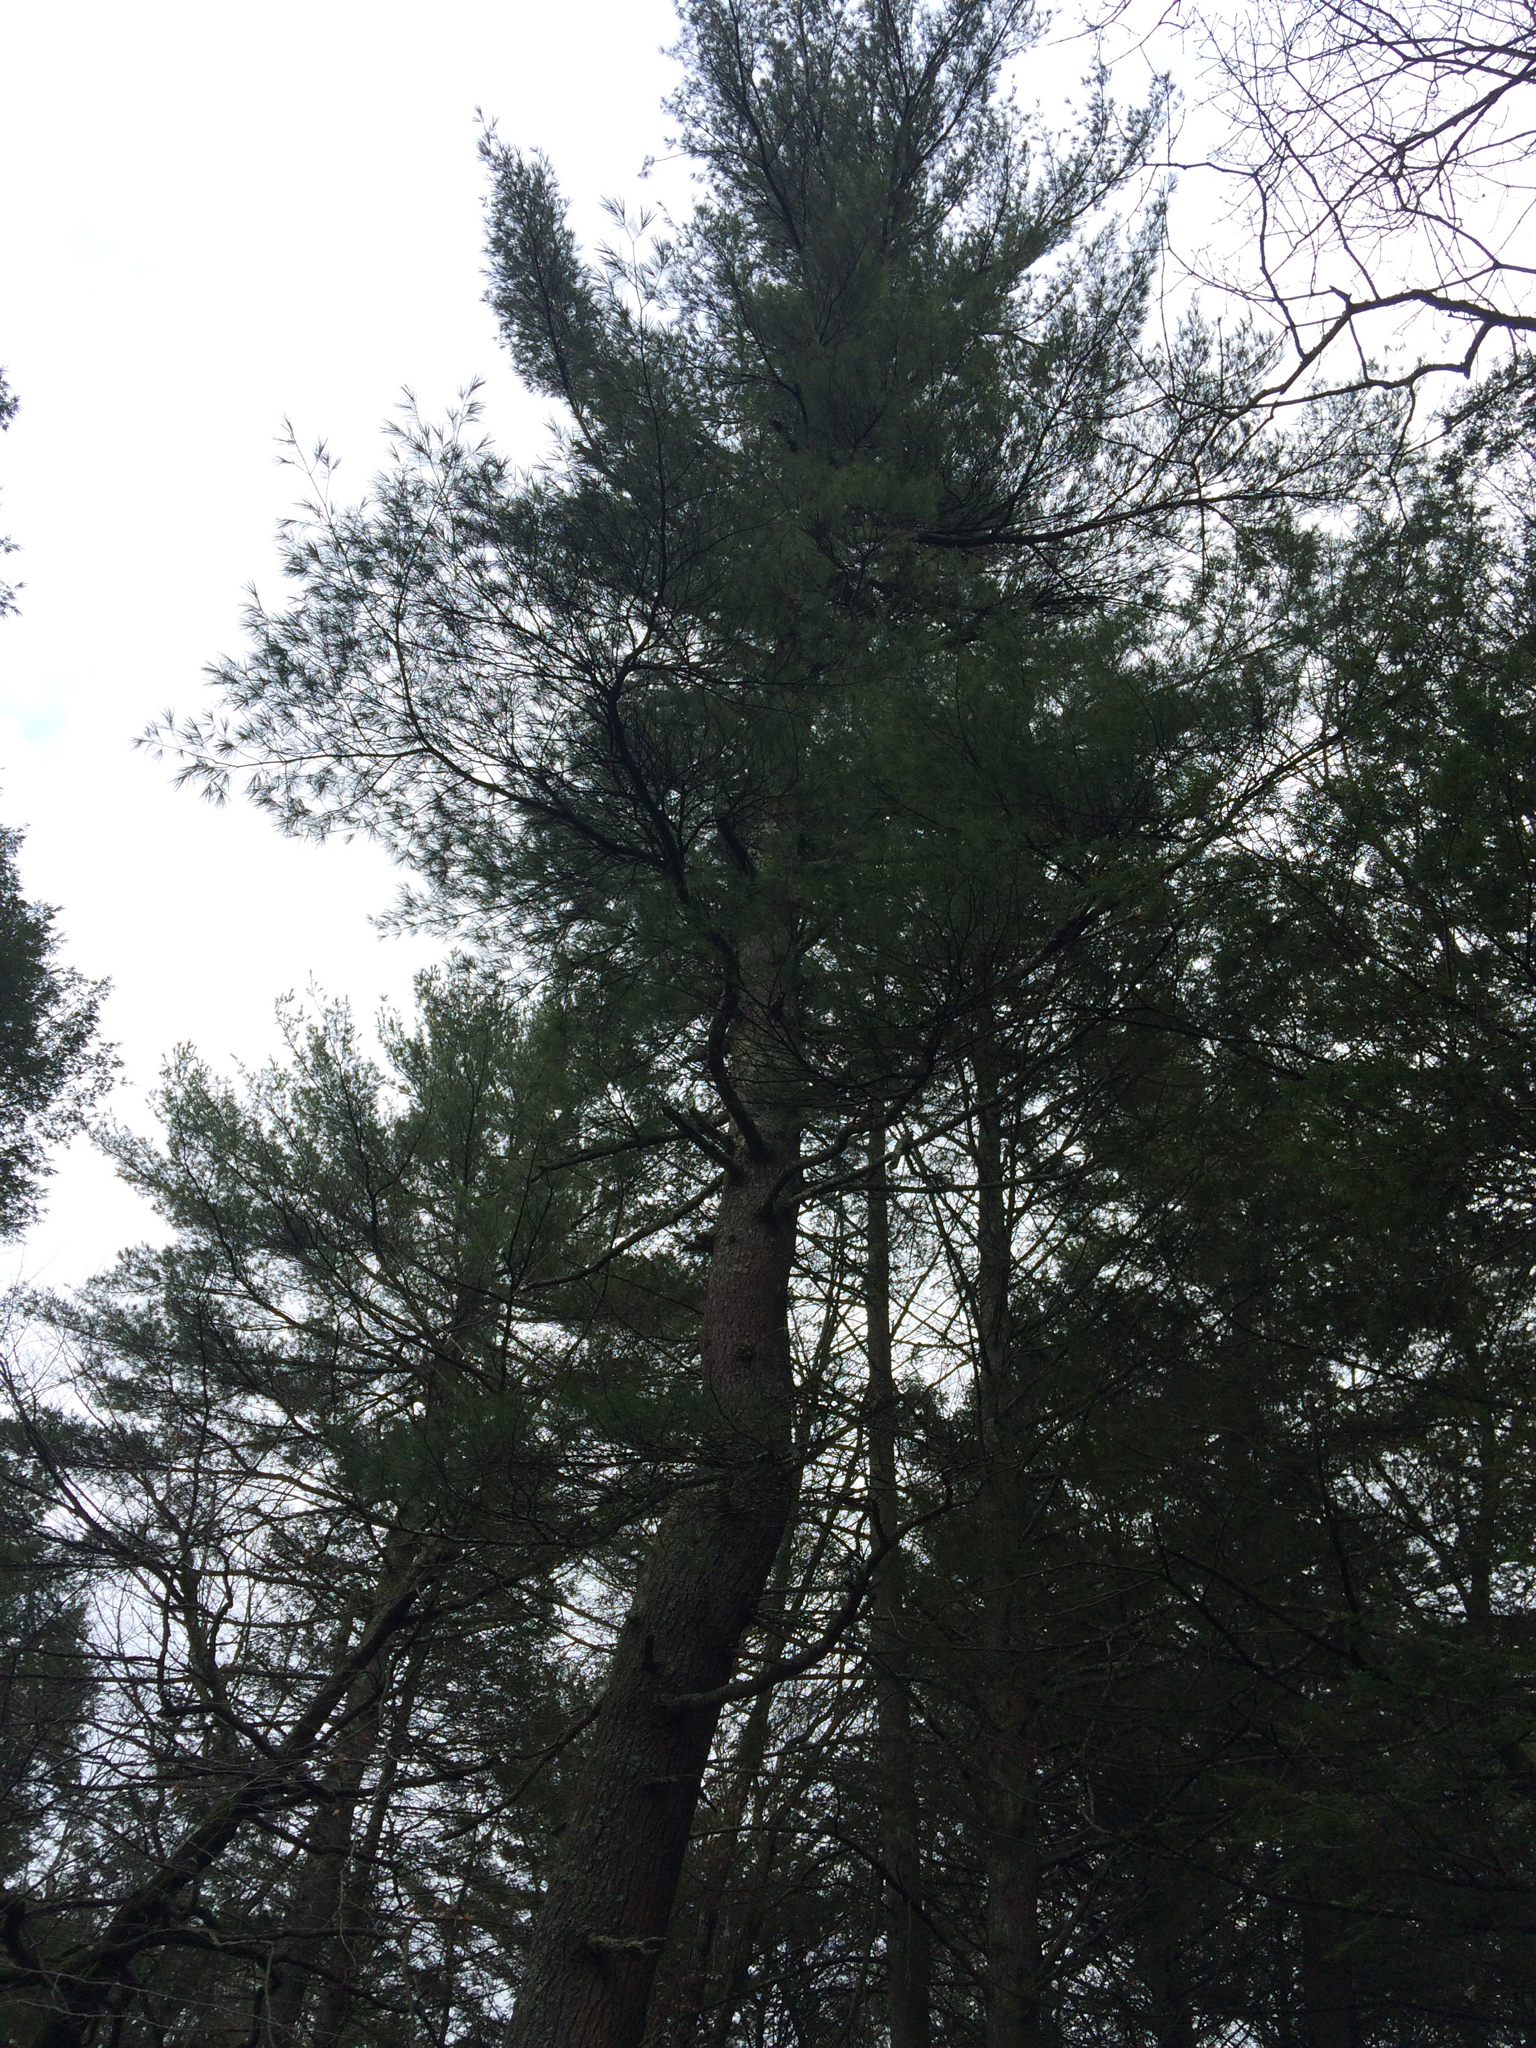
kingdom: Plantae
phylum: Tracheophyta
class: Pinopsida
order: Pinales
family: Pinaceae
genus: Pinus
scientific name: Pinus strobus
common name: Weymouth pine
